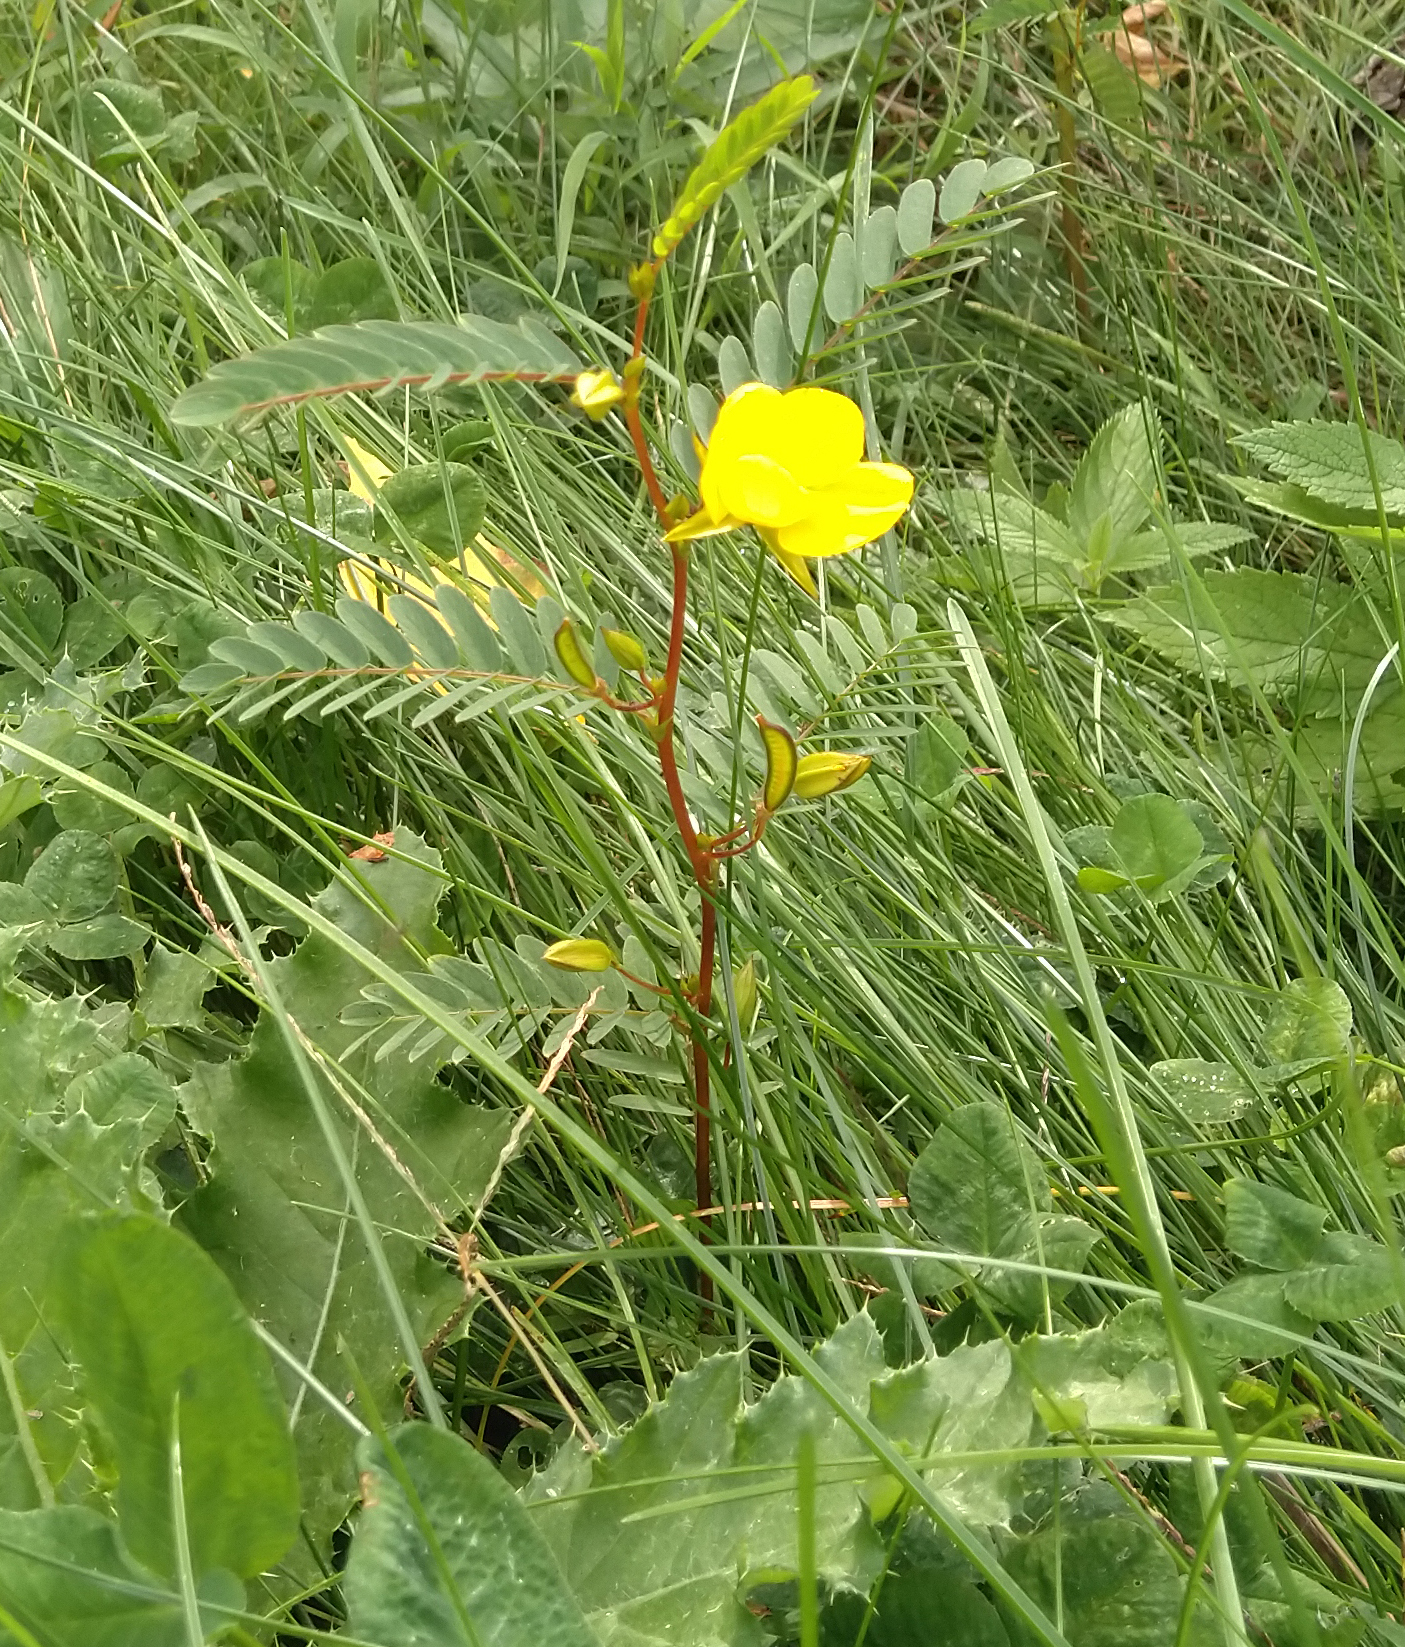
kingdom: Plantae
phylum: Tracheophyta
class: Magnoliopsida
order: Fabales
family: Fabaceae
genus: Chamaecrista
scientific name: Chamaecrista fasciculata
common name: Golden cassia
